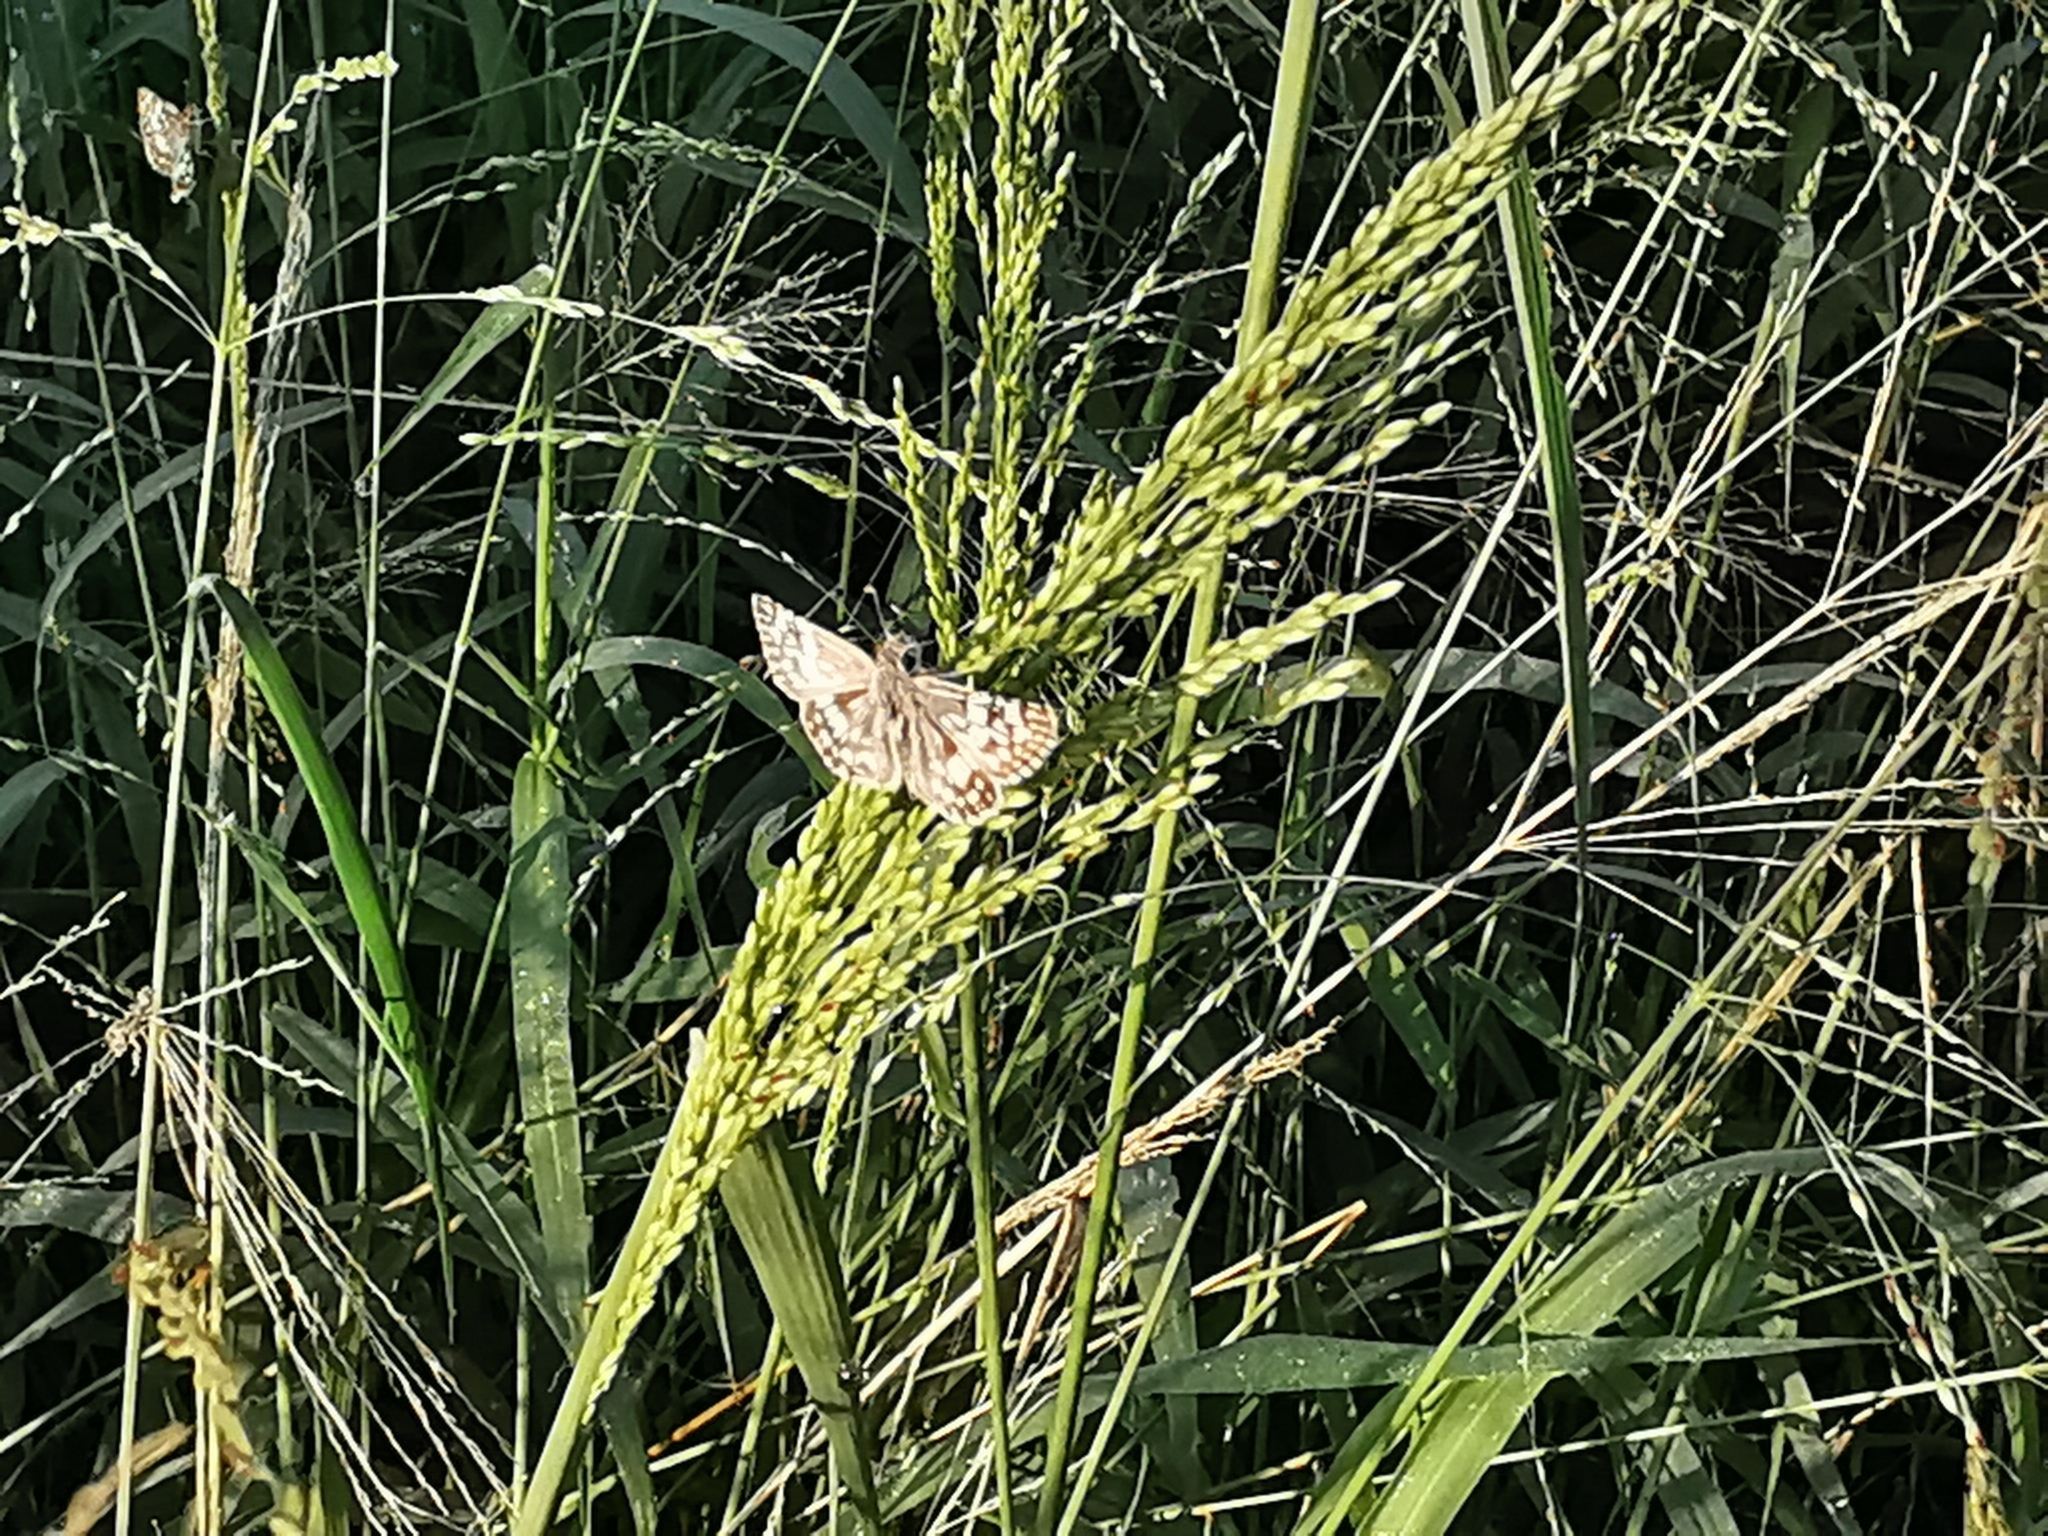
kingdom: Animalia
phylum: Arthropoda
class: Insecta
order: Lepidoptera
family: Hesperiidae
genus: Burnsius
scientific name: Burnsius albezens
